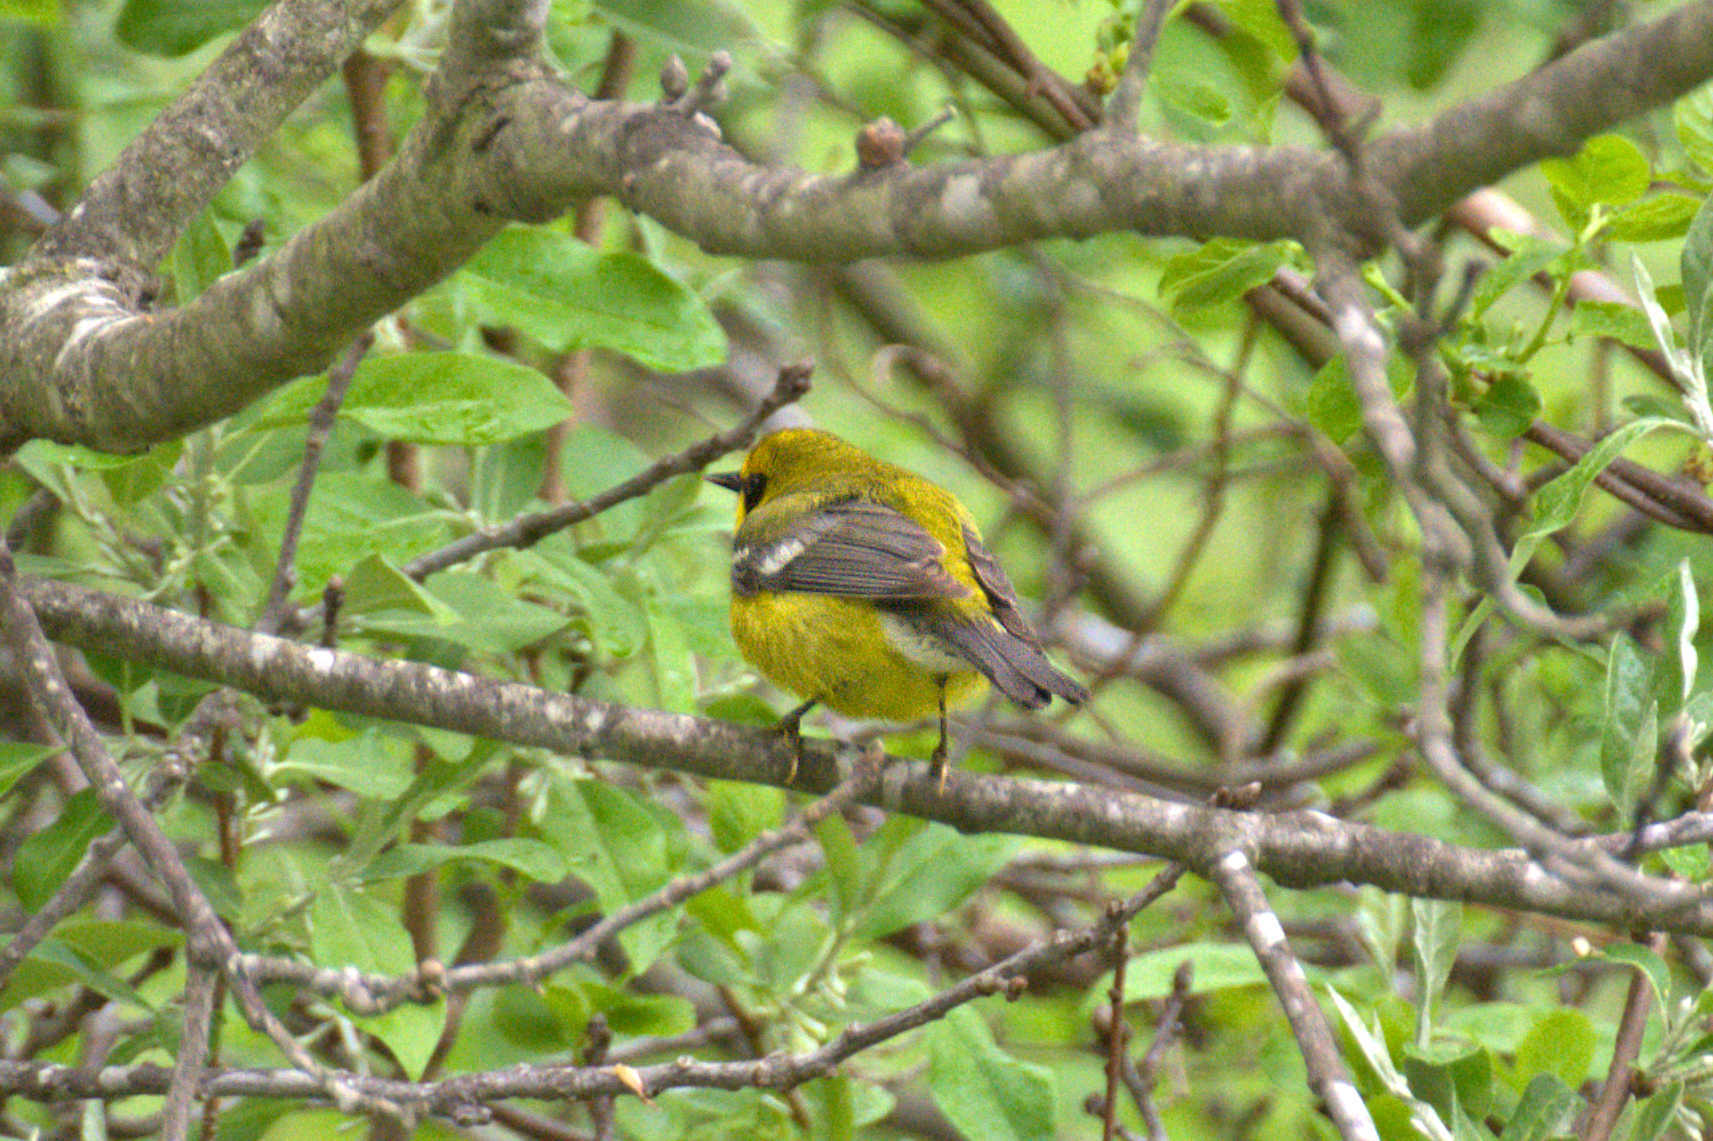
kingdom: Animalia
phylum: Chordata
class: Aves
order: Passeriformes
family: Parulidae
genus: Vermivora
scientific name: Vermivora
